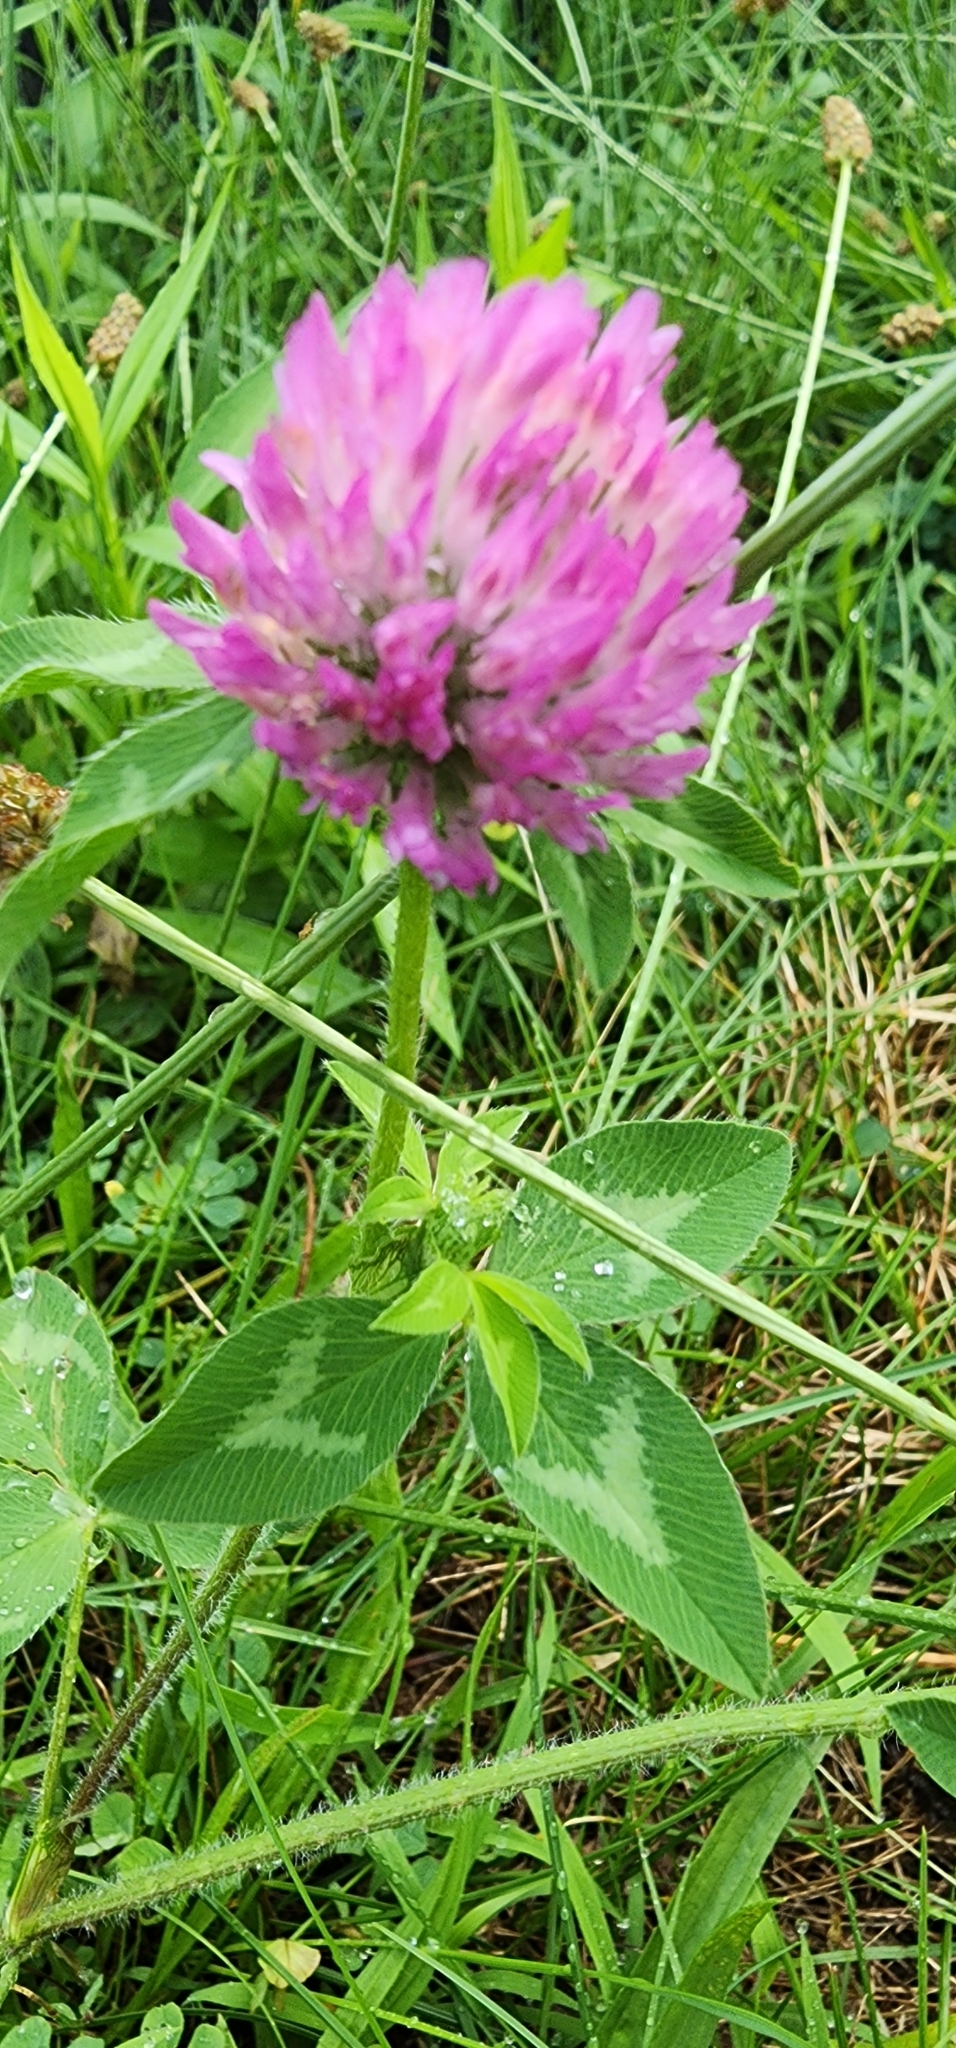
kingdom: Plantae
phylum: Tracheophyta
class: Magnoliopsida
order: Fabales
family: Fabaceae
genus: Trifolium
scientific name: Trifolium pratense
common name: Red clover
